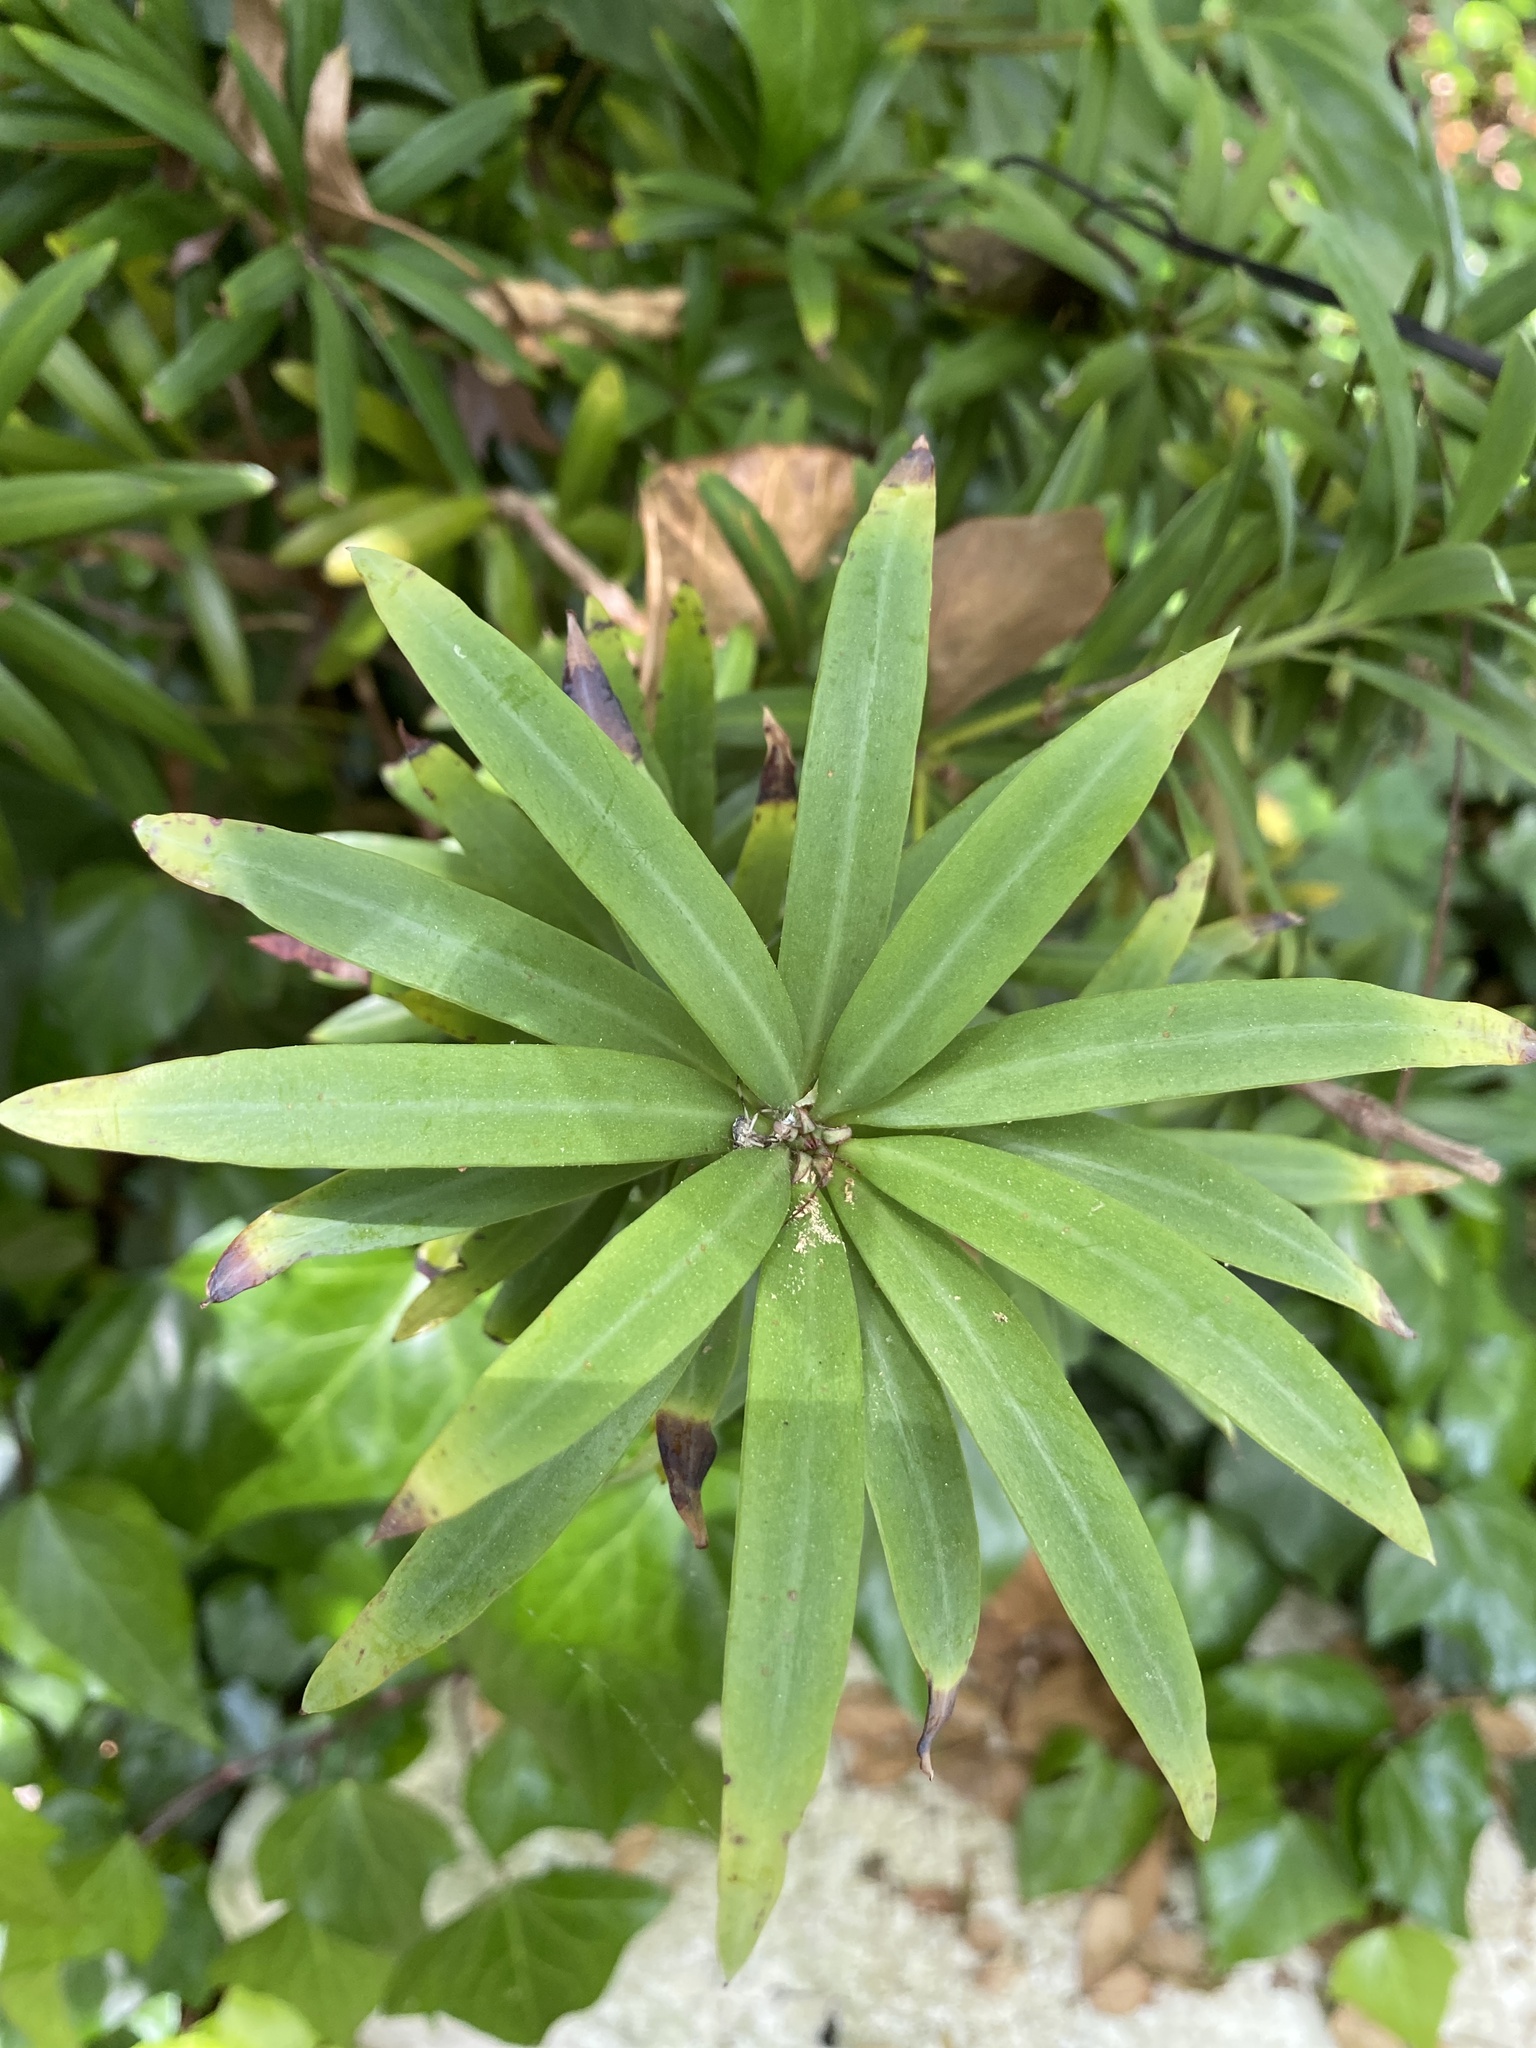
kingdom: Plantae
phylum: Tracheophyta
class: Pinopsida
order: Pinales
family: Podocarpaceae
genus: Podocarpus
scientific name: Podocarpus latifolius
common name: True yellowwood
